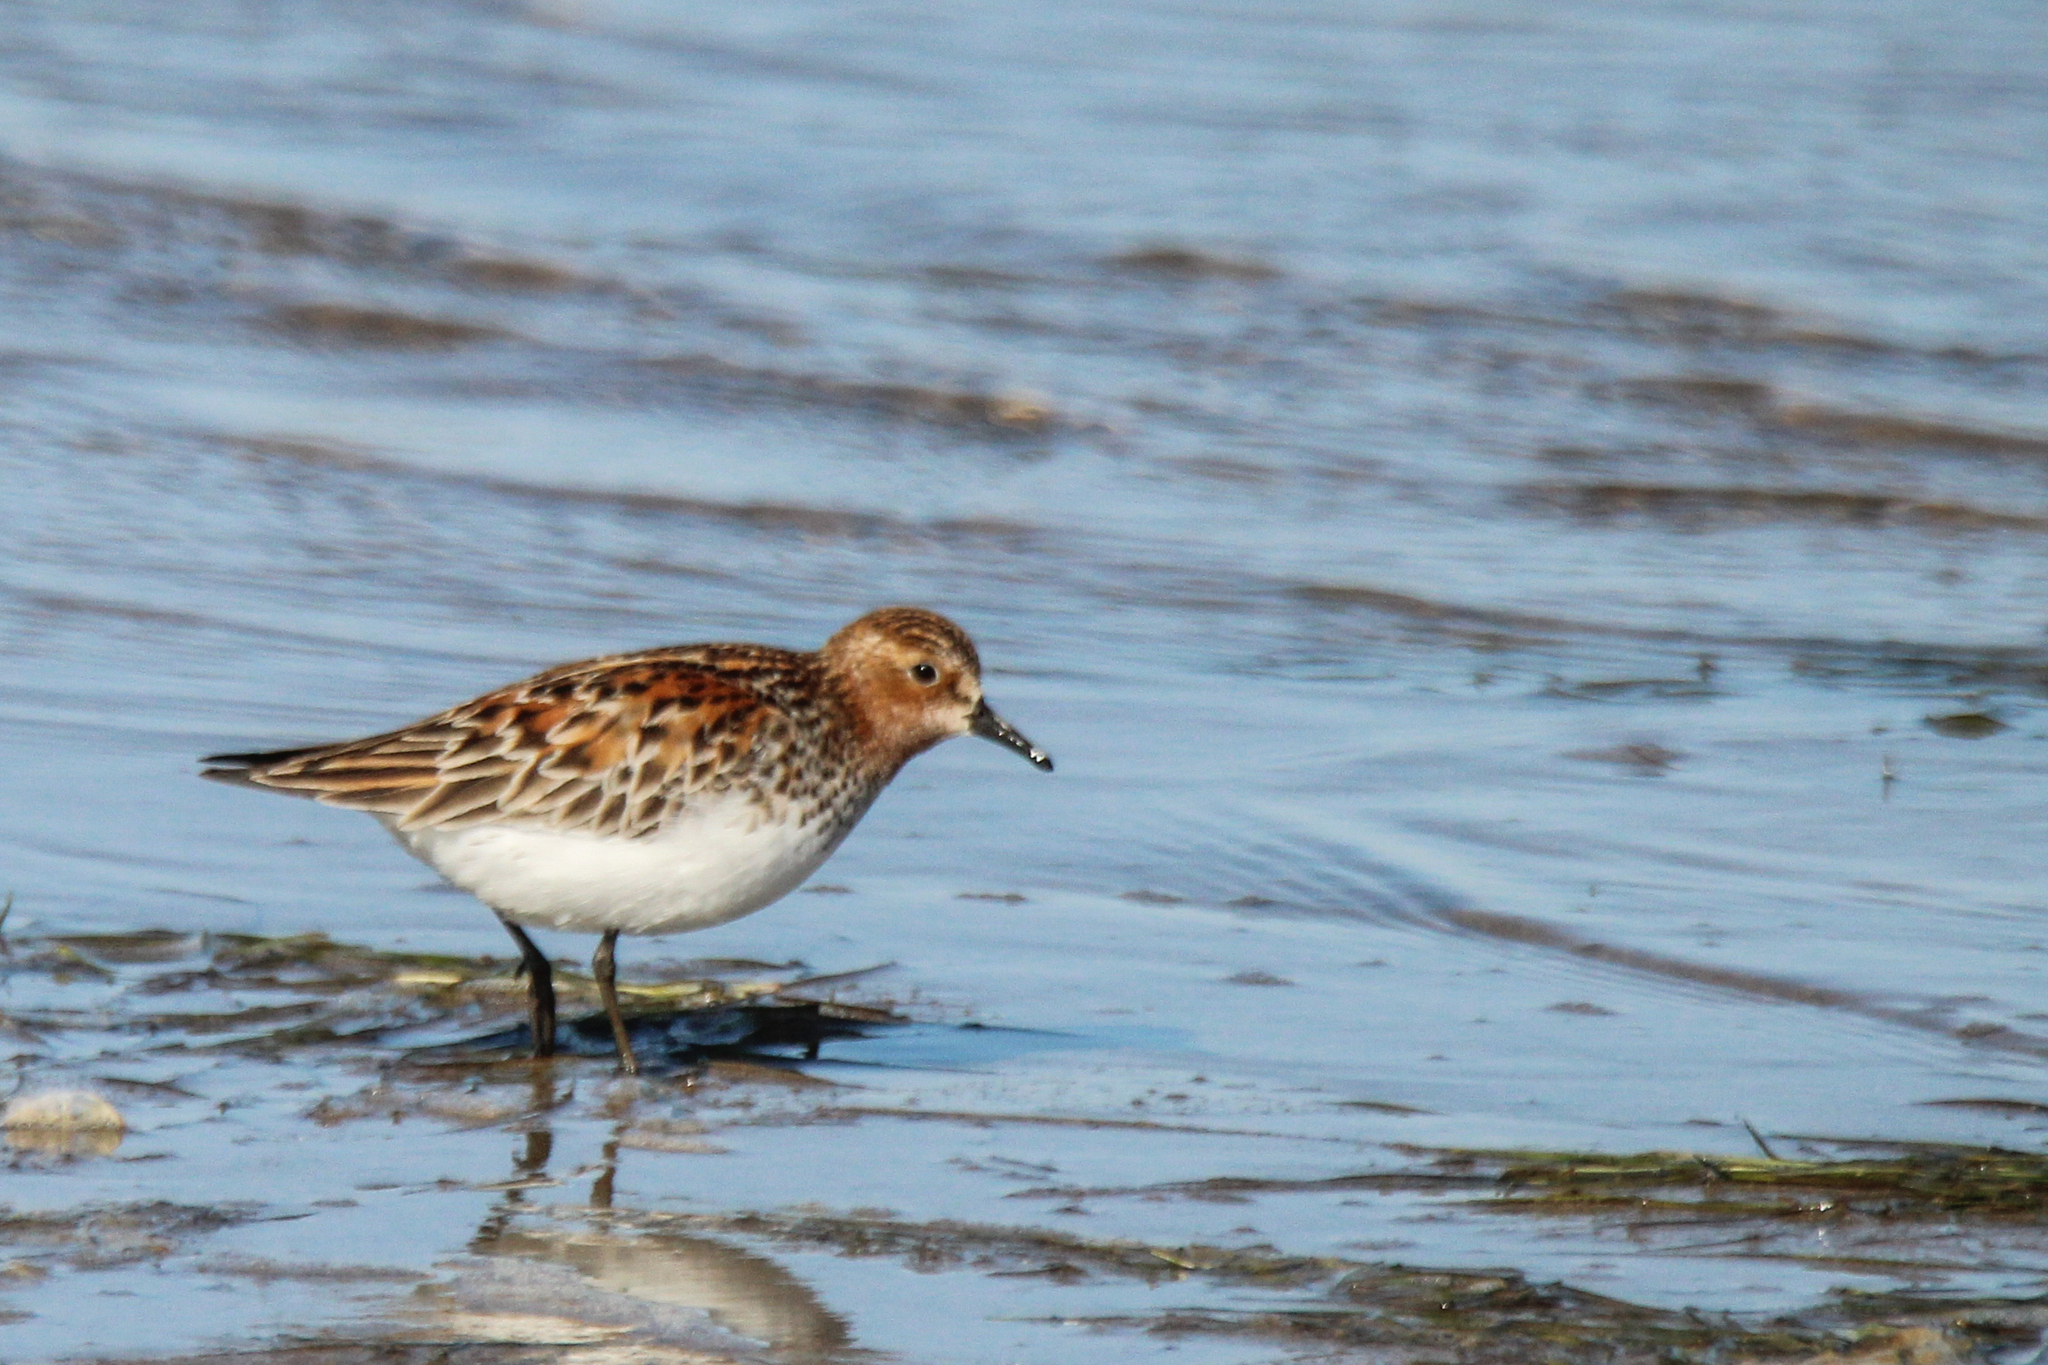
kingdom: Animalia
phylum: Chordata
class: Aves
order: Charadriiformes
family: Scolopacidae
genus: Calidris
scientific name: Calidris ruficollis
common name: Red-necked stint
